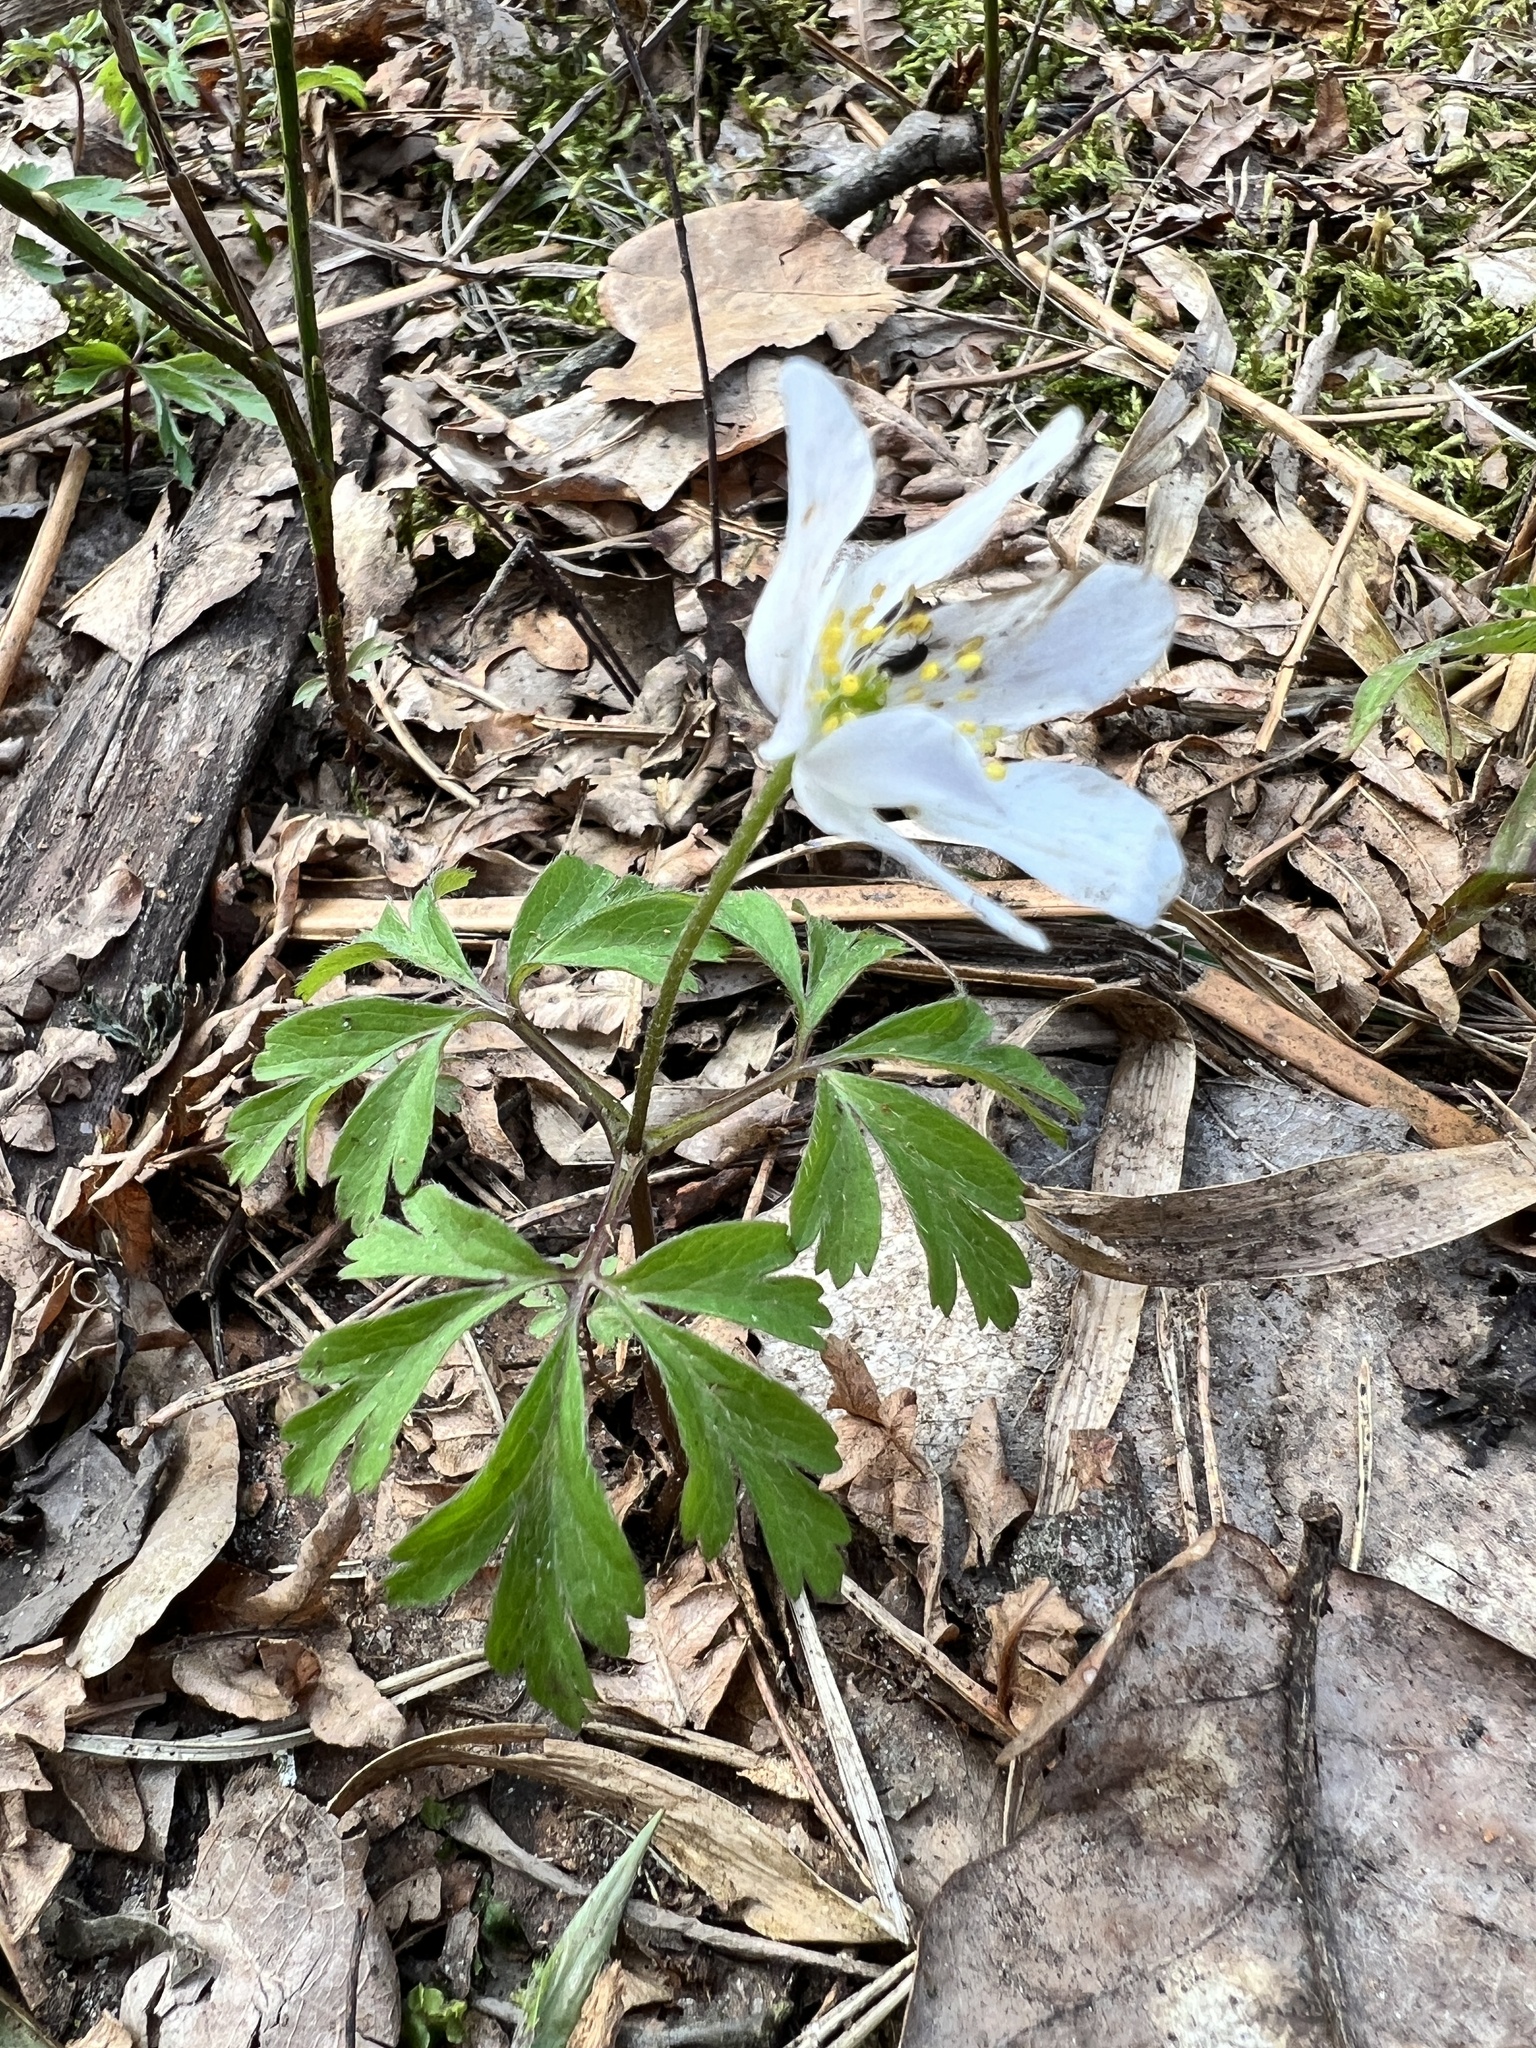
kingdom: Plantae
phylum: Tracheophyta
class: Magnoliopsida
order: Ranunculales
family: Ranunculaceae
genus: Anemone
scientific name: Anemone nemorosa
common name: Wood anemone
